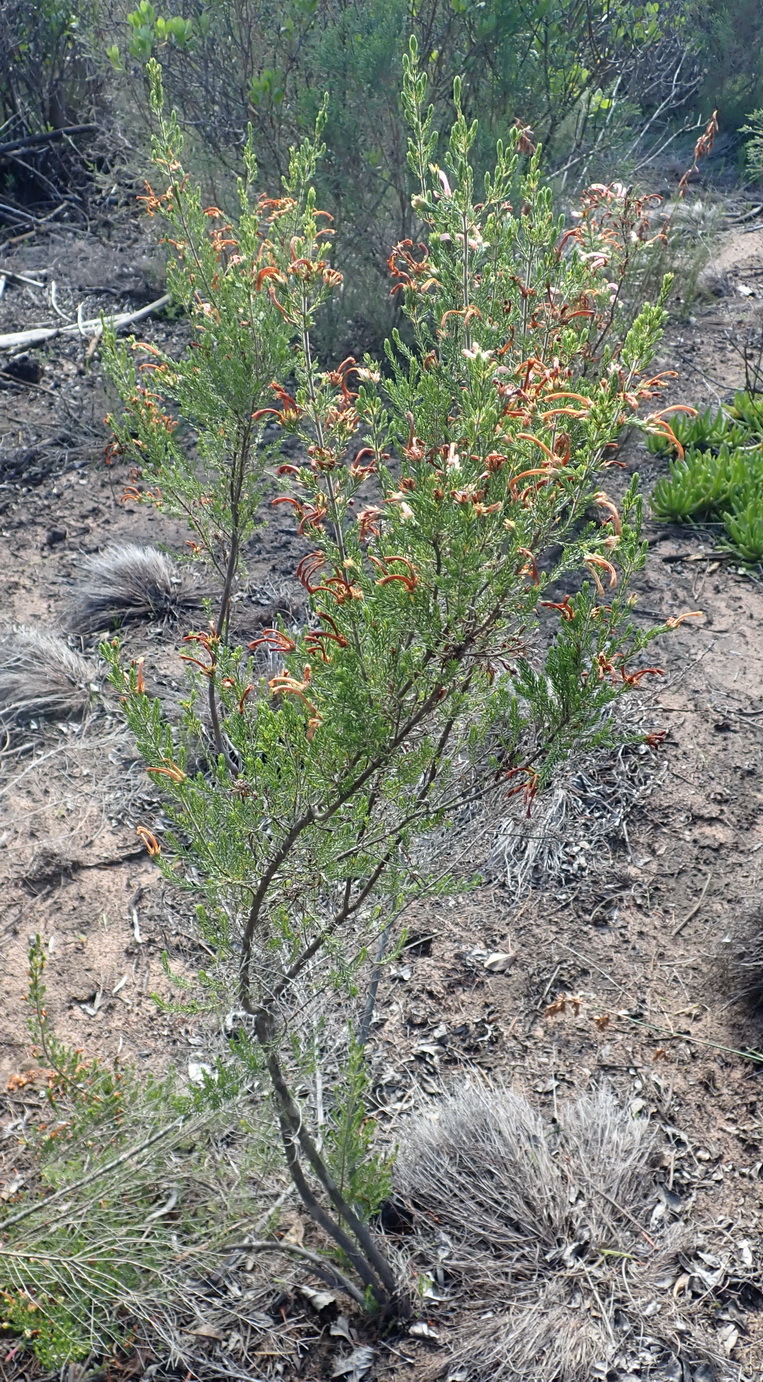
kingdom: Plantae
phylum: Tracheophyta
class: Magnoliopsida
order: Ericales
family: Ericaceae
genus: Erica
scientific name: Erica discolor
